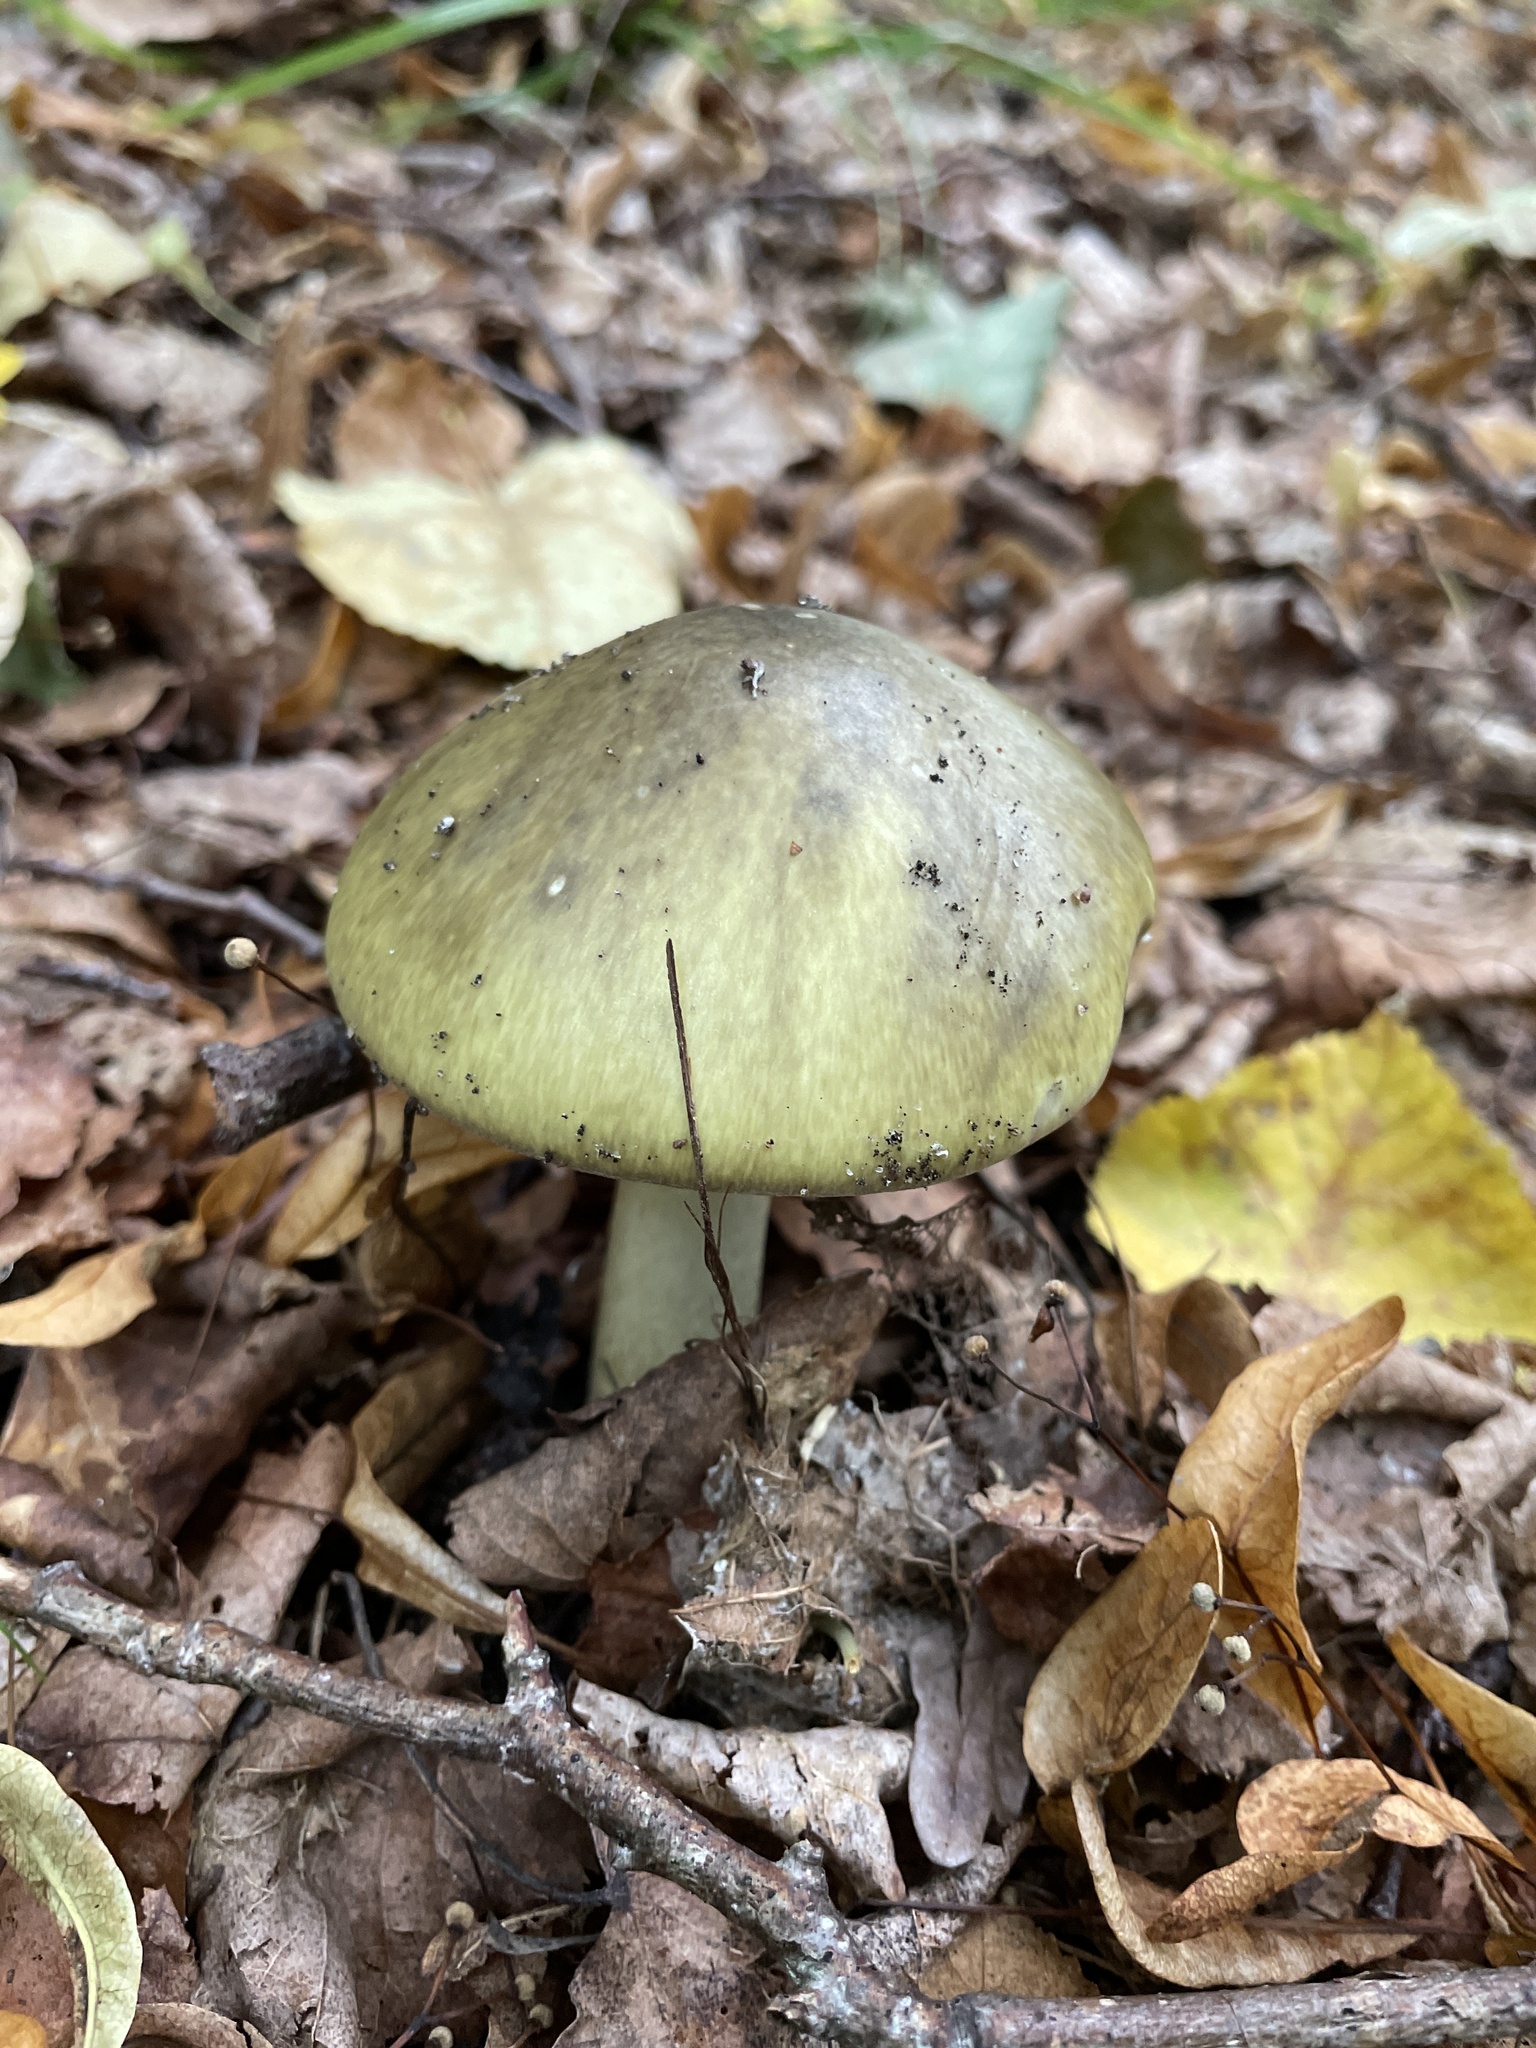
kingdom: Fungi
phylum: Basidiomycota
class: Agaricomycetes
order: Agaricales
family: Amanitaceae
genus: Amanita
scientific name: Amanita phalloides
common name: Death cap
